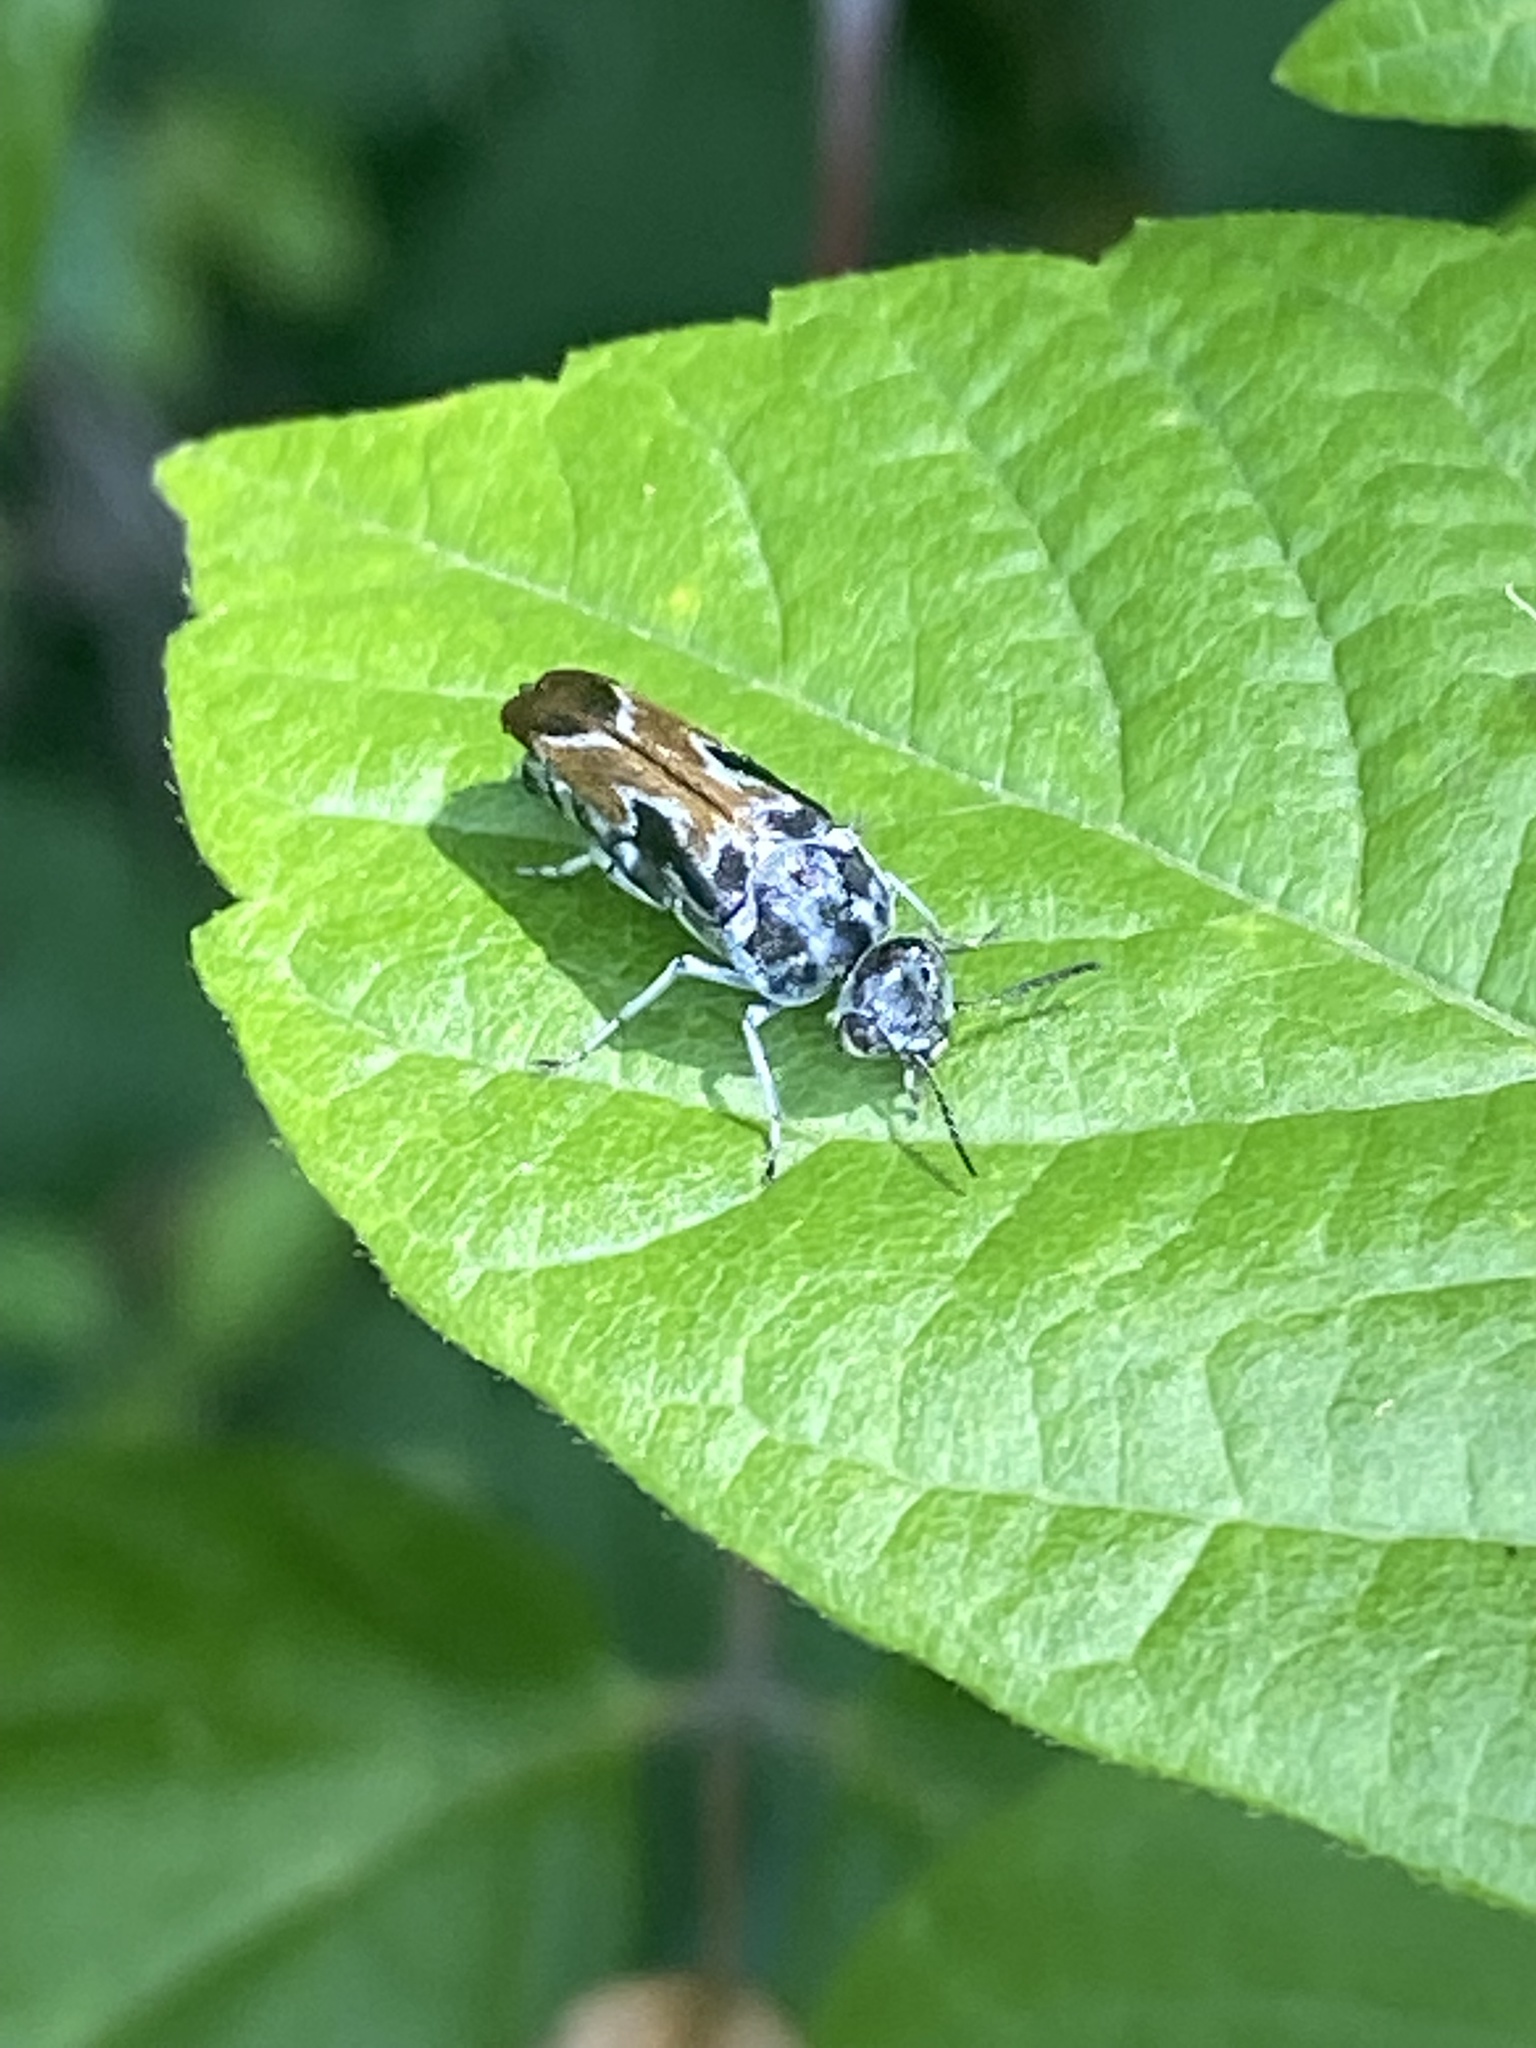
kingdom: Animalia
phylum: Arthropoda
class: Insecta
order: Coleoptera
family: Mordellidae
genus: Glipa
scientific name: Glipa hilaris
